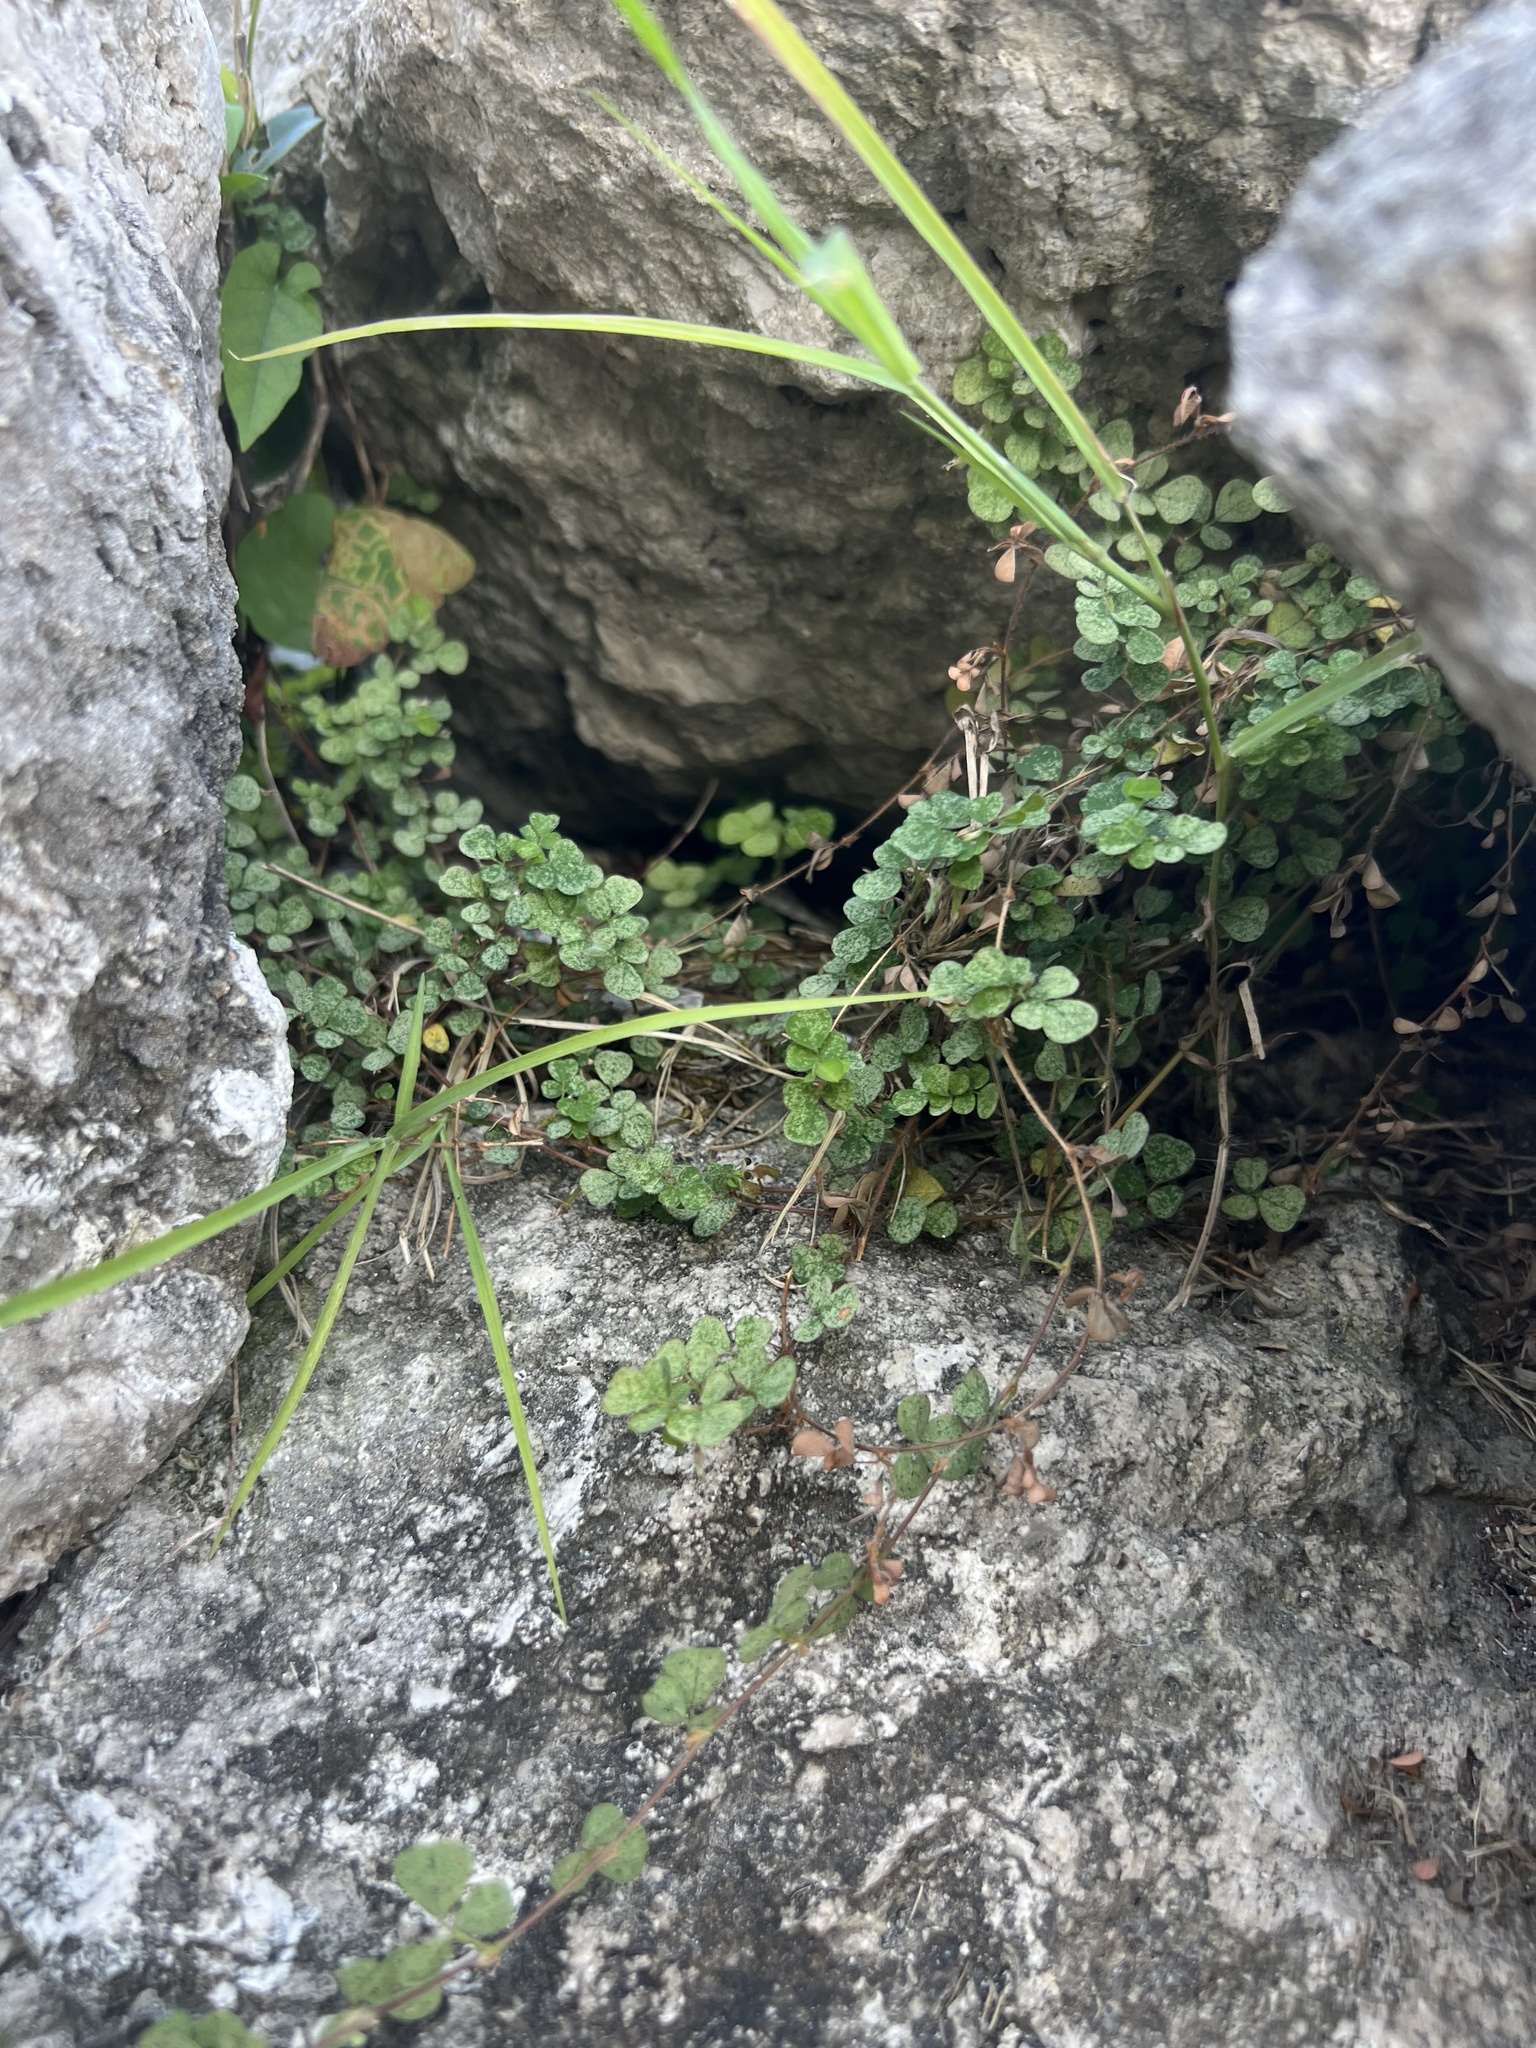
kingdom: Plantae
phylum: Tracheophyta
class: Magnoliopsida
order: Fabales
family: Fabaceae
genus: Grona
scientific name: Grona triflora
